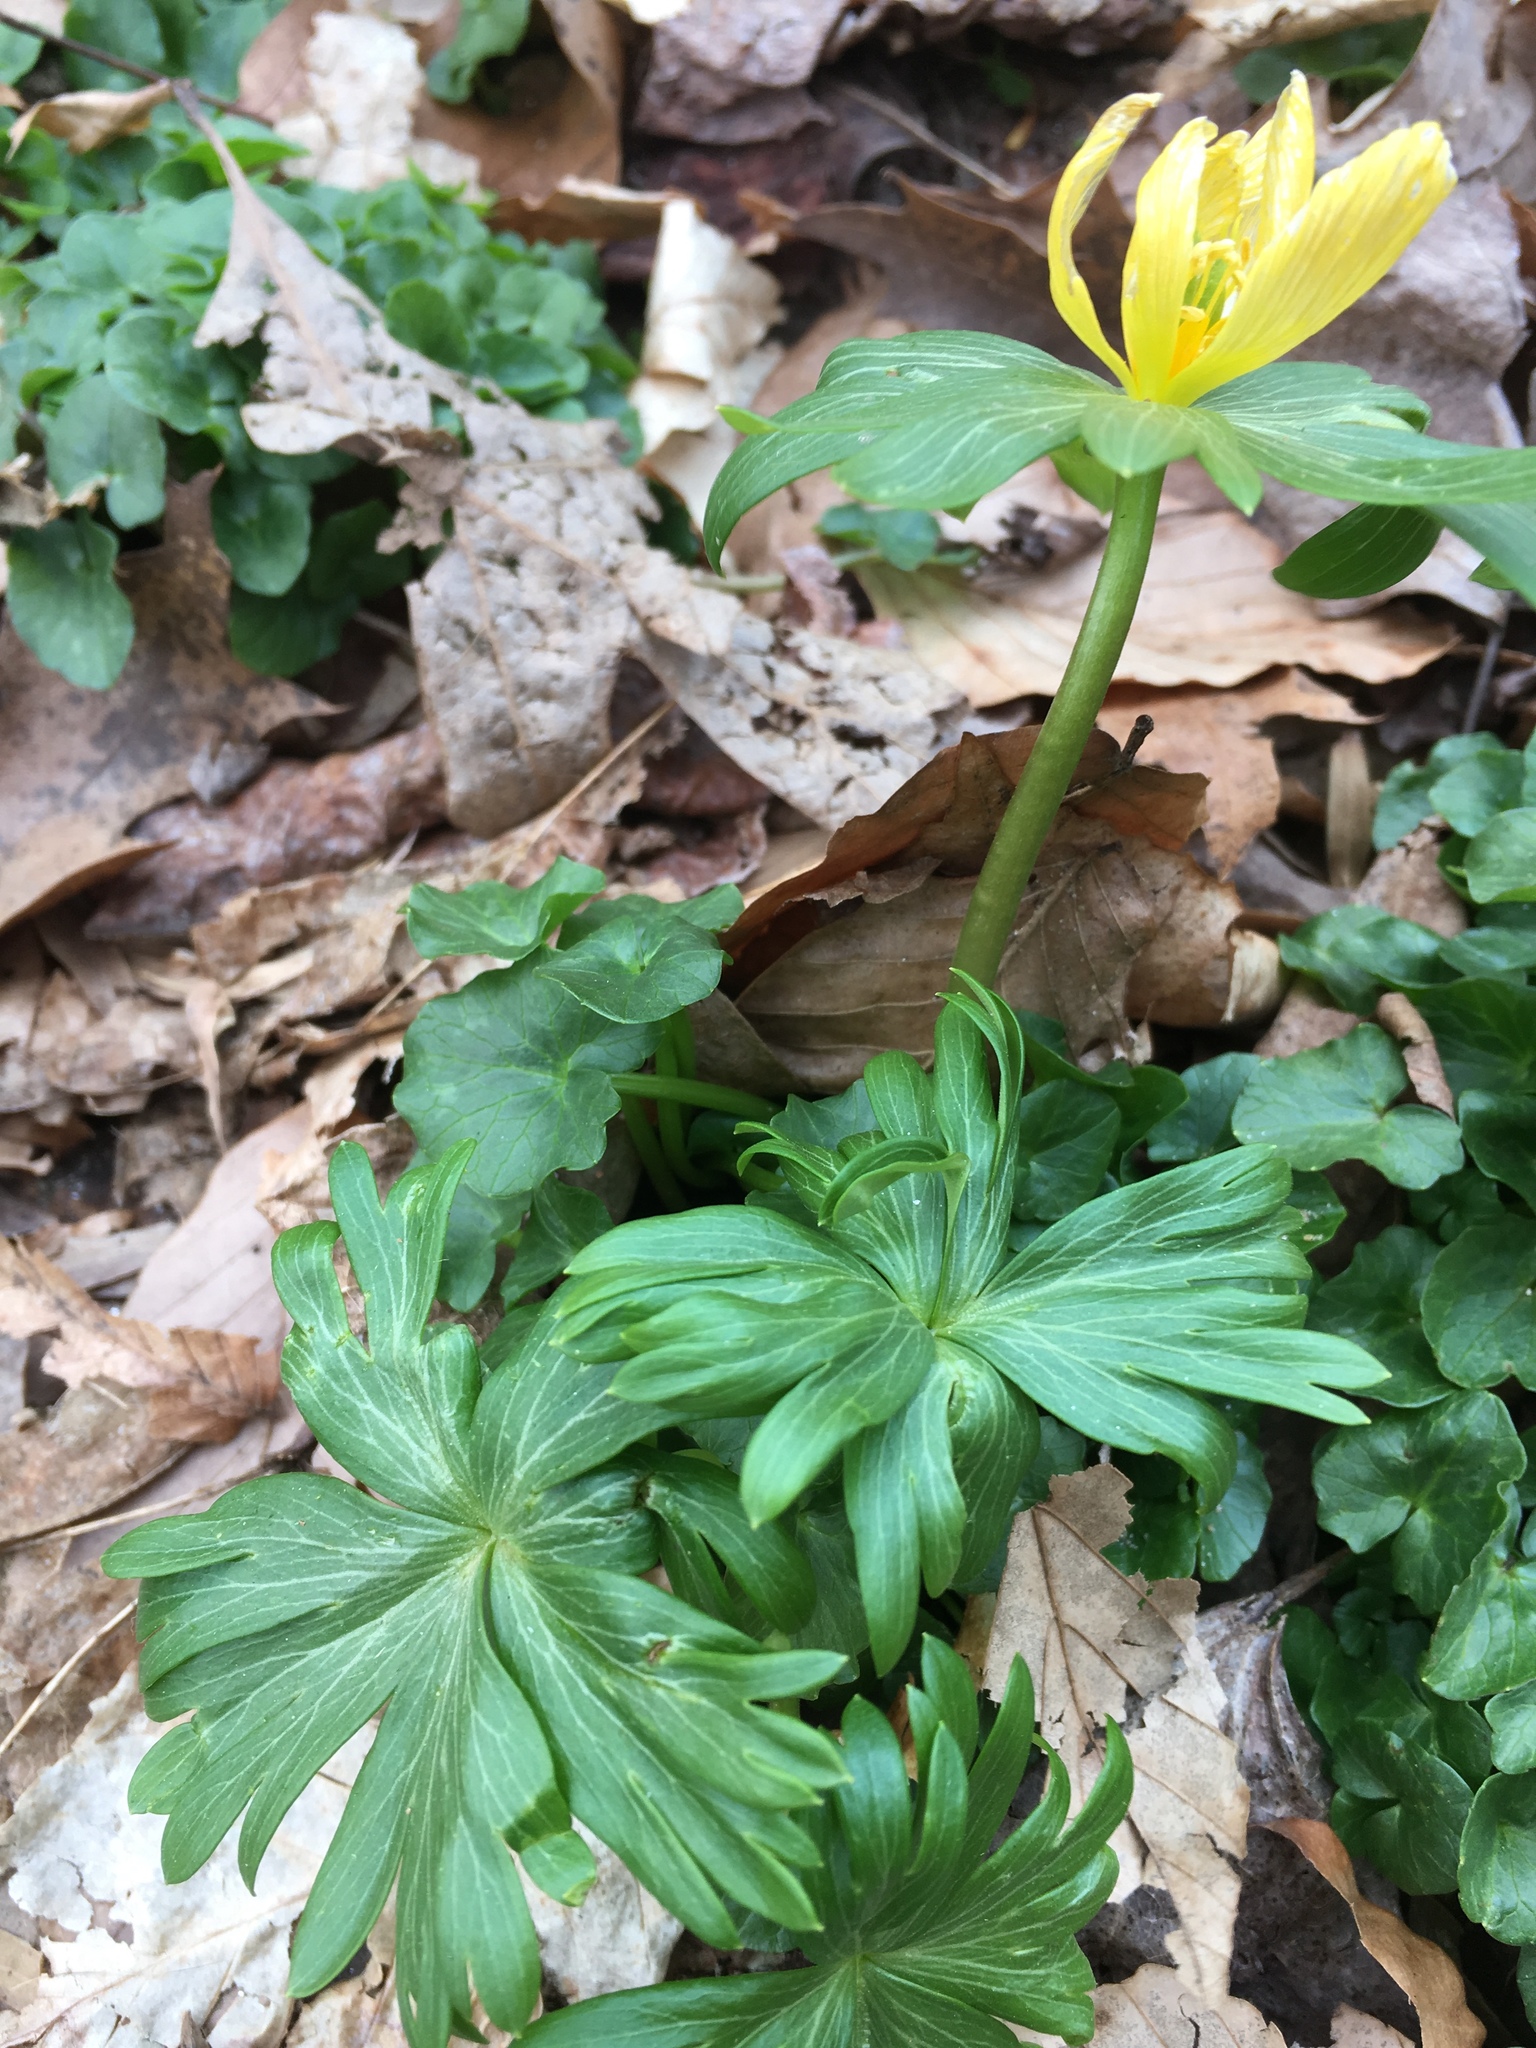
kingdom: Plantae
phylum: Tracheophyta
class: Magnoliopsida
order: Ranunculales
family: Ranunculaceae
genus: Eranthis
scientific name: Eranthis hyemalis
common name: Winter aconite
